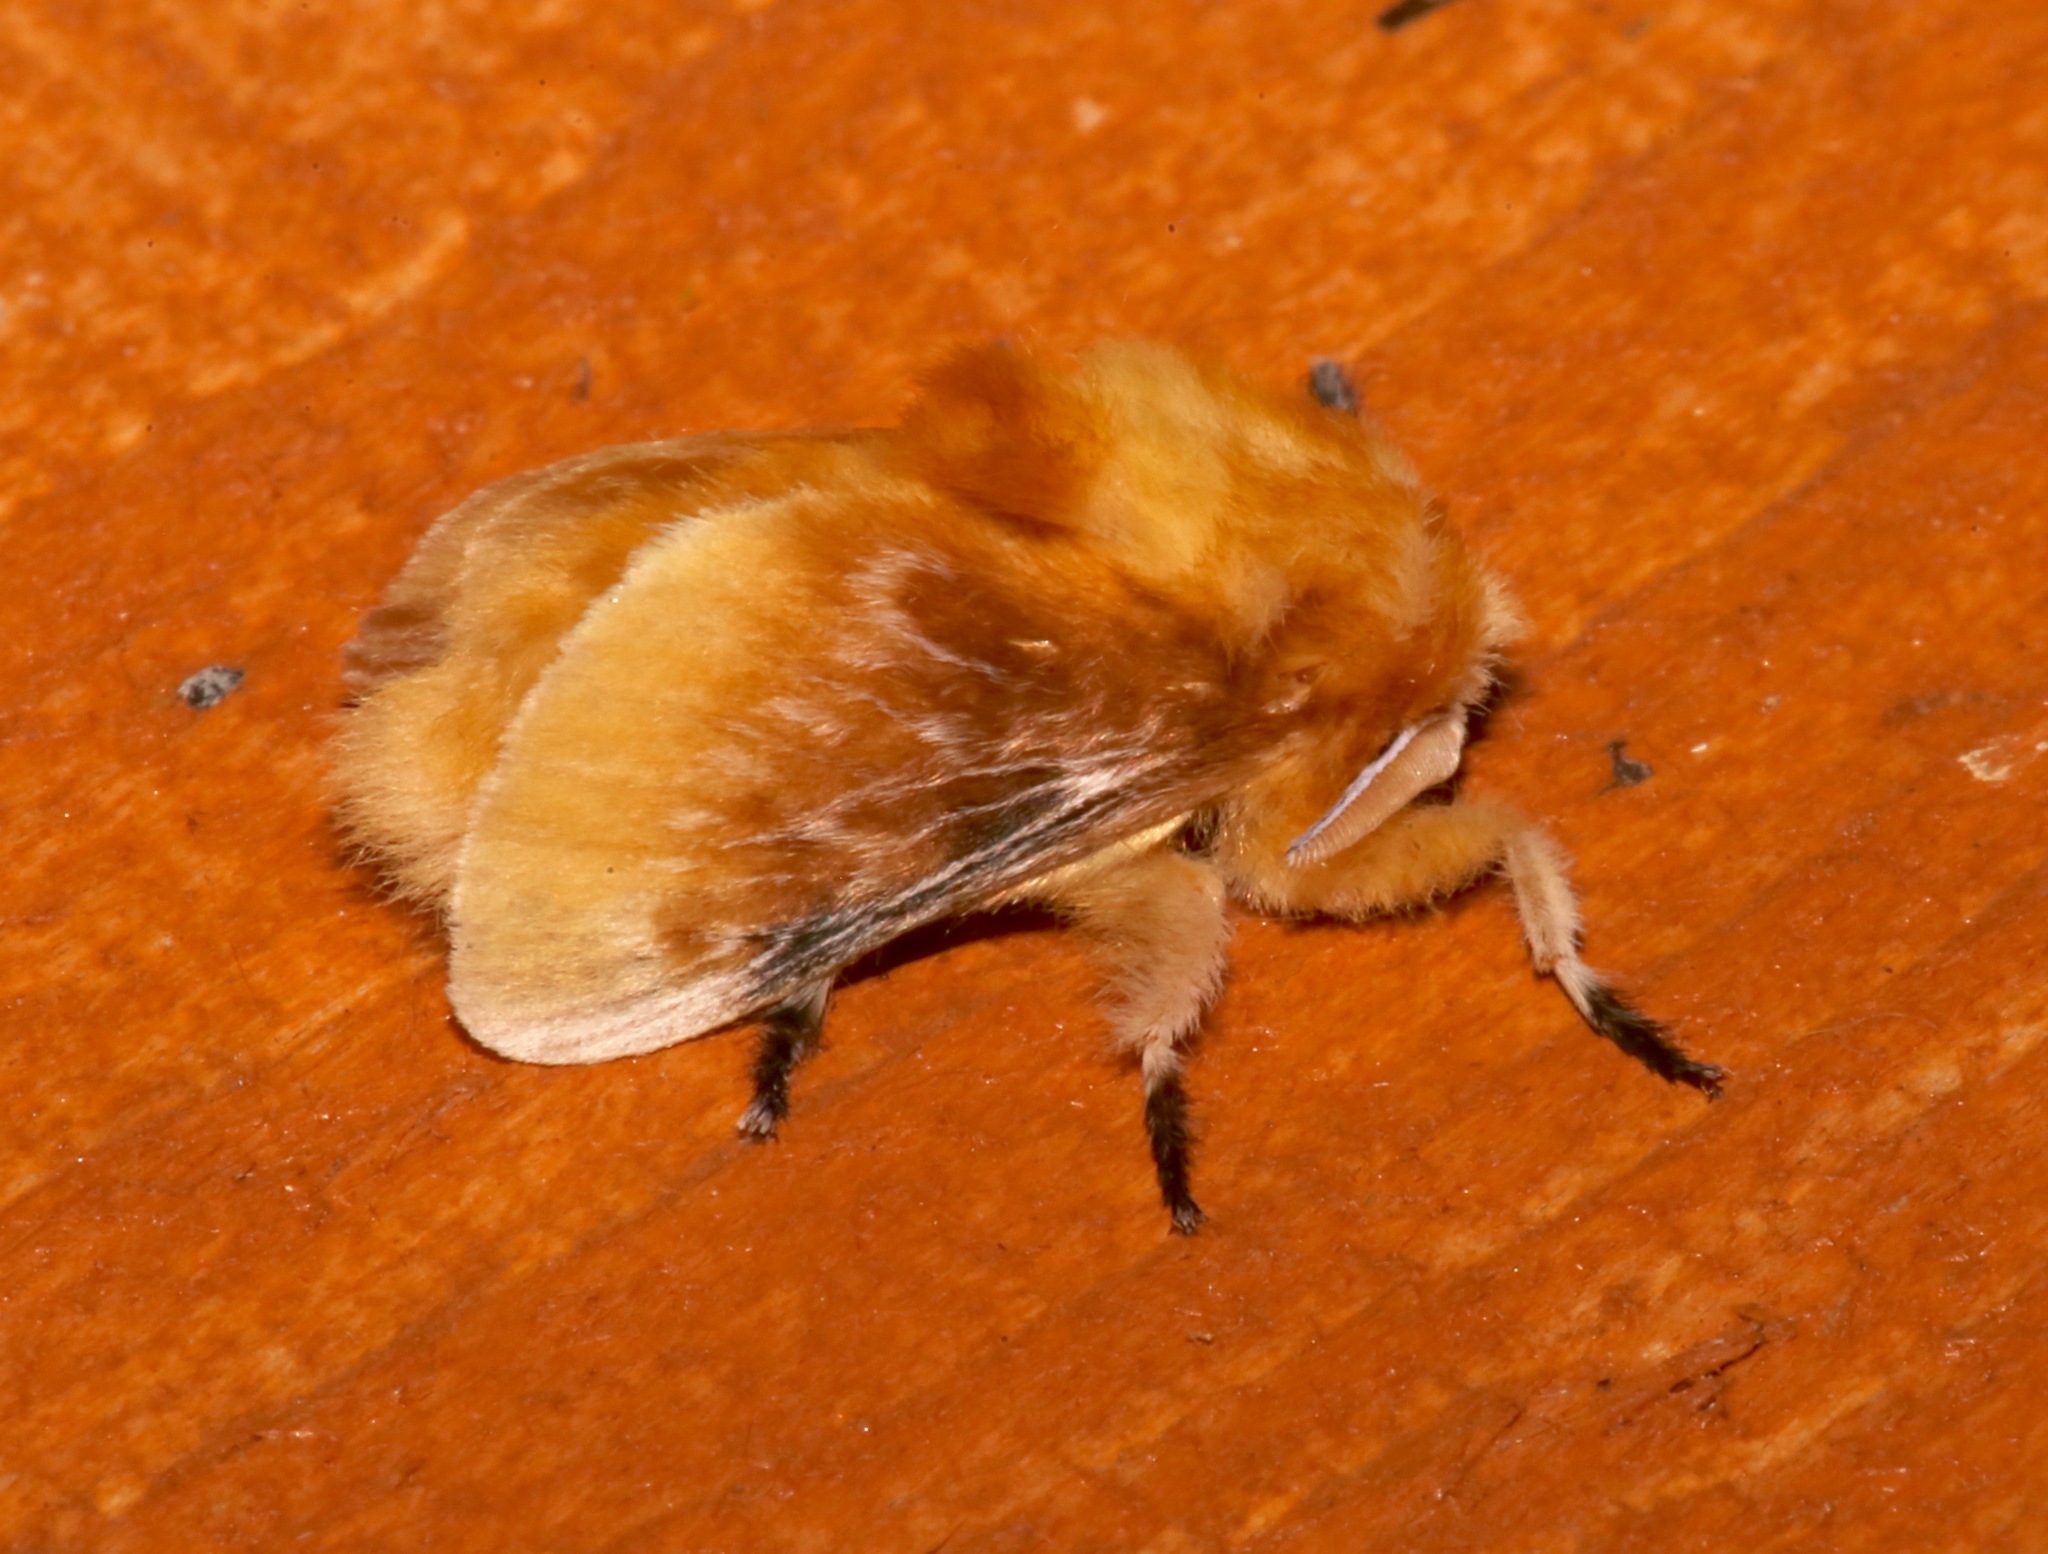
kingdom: Animalia
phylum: Arthropoda
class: Insecta
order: Lepidoptera
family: Megalopygidae
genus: Megalopyge
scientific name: Megalopyge opercularis
